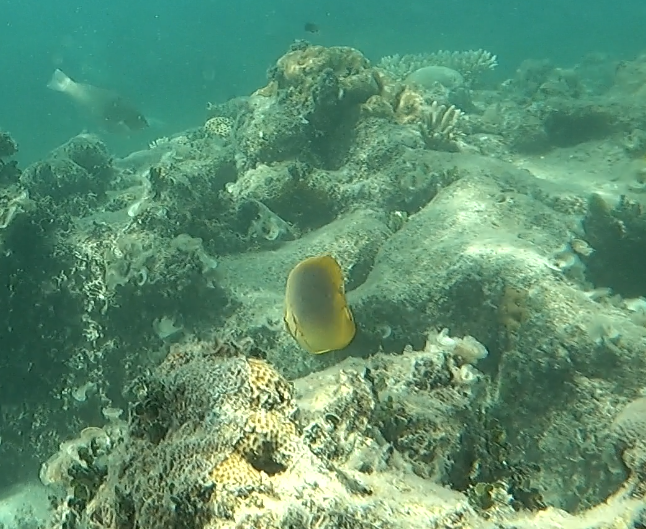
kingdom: Animalia
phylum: Chordata
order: Perciformes
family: Chaetodontidae
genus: Chaetodon
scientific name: Chaetodon aureofasciatus
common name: Golden butterflyfish
